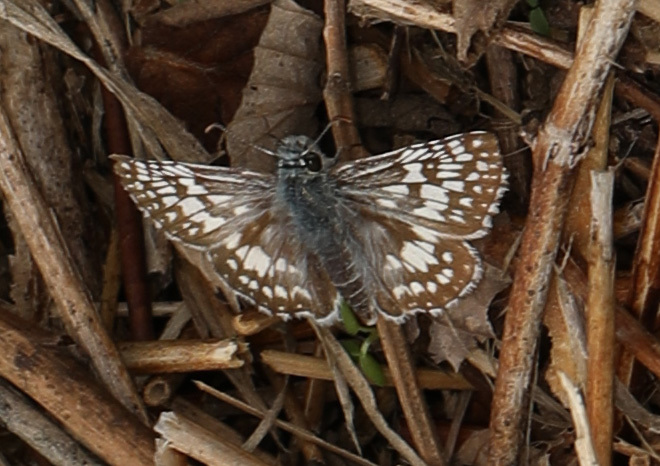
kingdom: Animalia
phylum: Arthropoda
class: Insecta
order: Lepidoptera
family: Hesperiidae
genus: Burnsius
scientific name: Burnsius communis
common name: Common checkered-skipper
